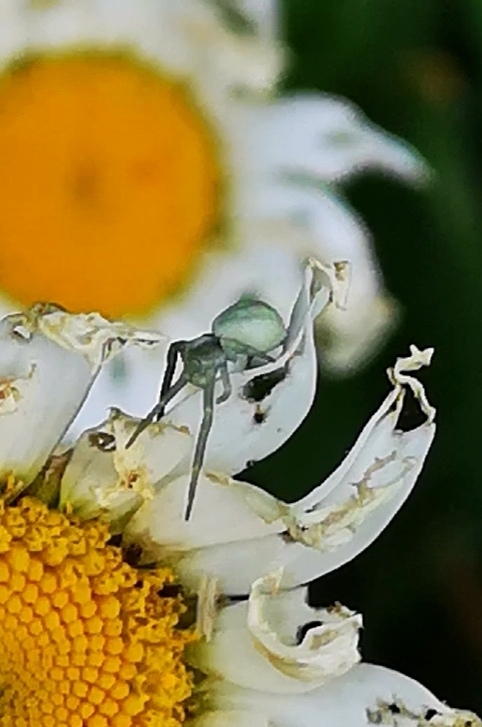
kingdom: Animalia
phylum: Arthropoda
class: Arachnida
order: Araneae
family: Thomisidae
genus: Misumena
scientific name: Misumena vatia
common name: Goldenrod crab spider
